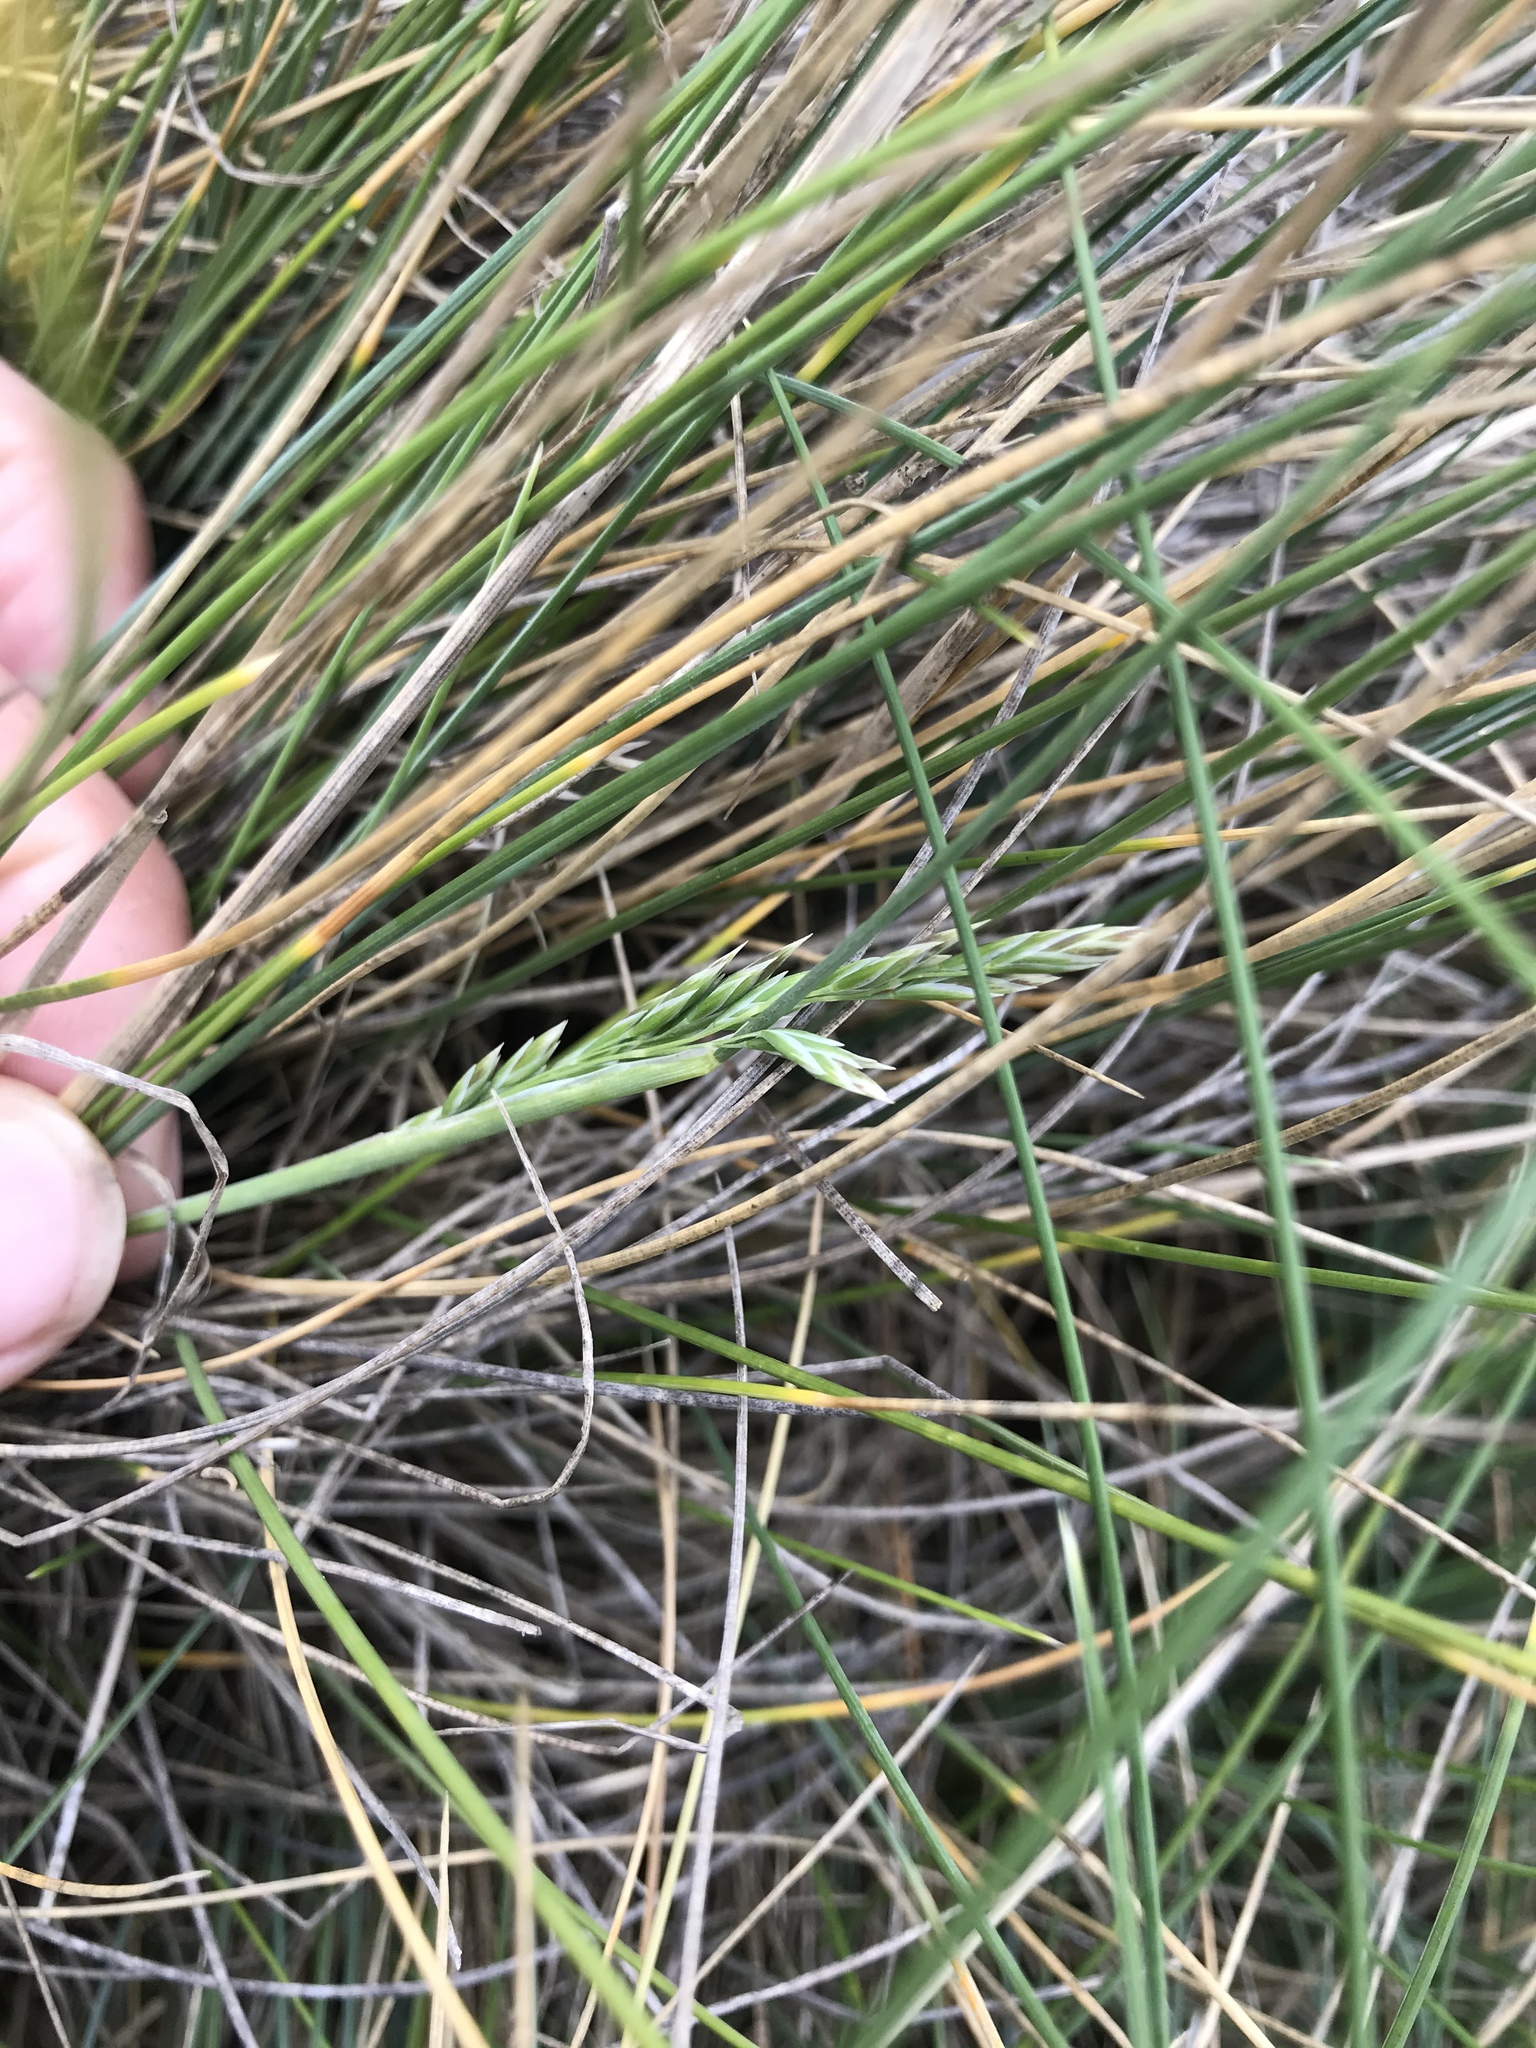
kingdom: Plantae
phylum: Tracheophyta
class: Liliopsida
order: Poales
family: Poaceae
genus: Poa
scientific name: Poa astonii
